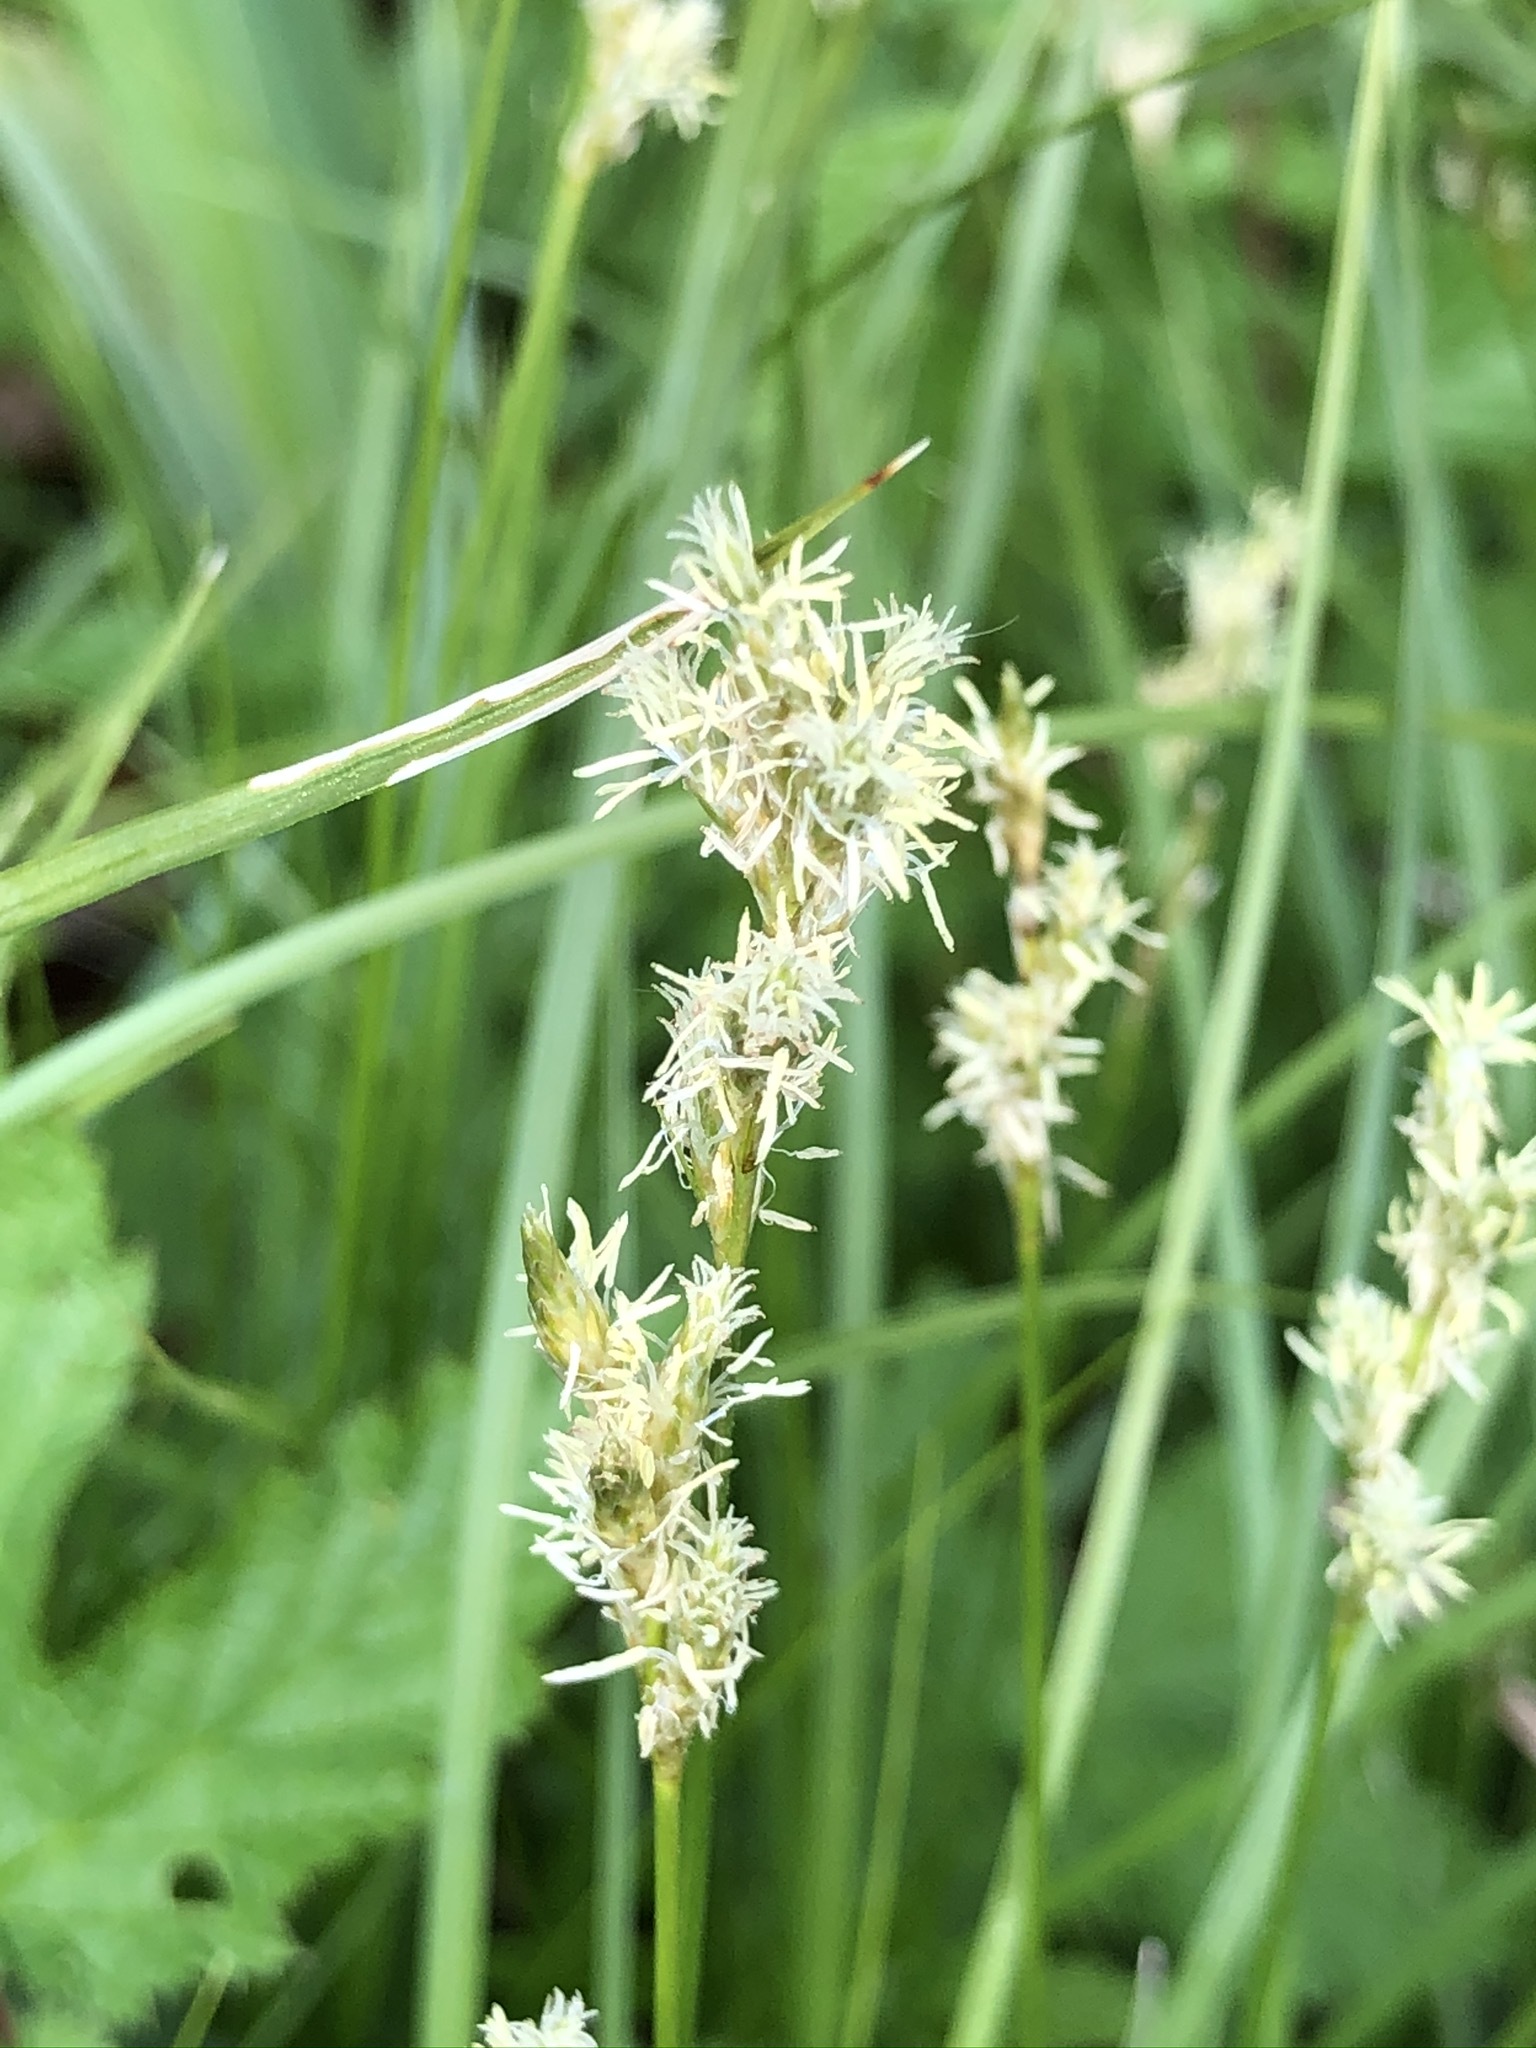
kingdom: Plantae
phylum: Tracheophyta
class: Liliopsida
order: Poales
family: Cyperaceae
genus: Carex
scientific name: Carex brizoides
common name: Quaking-grass sedge
